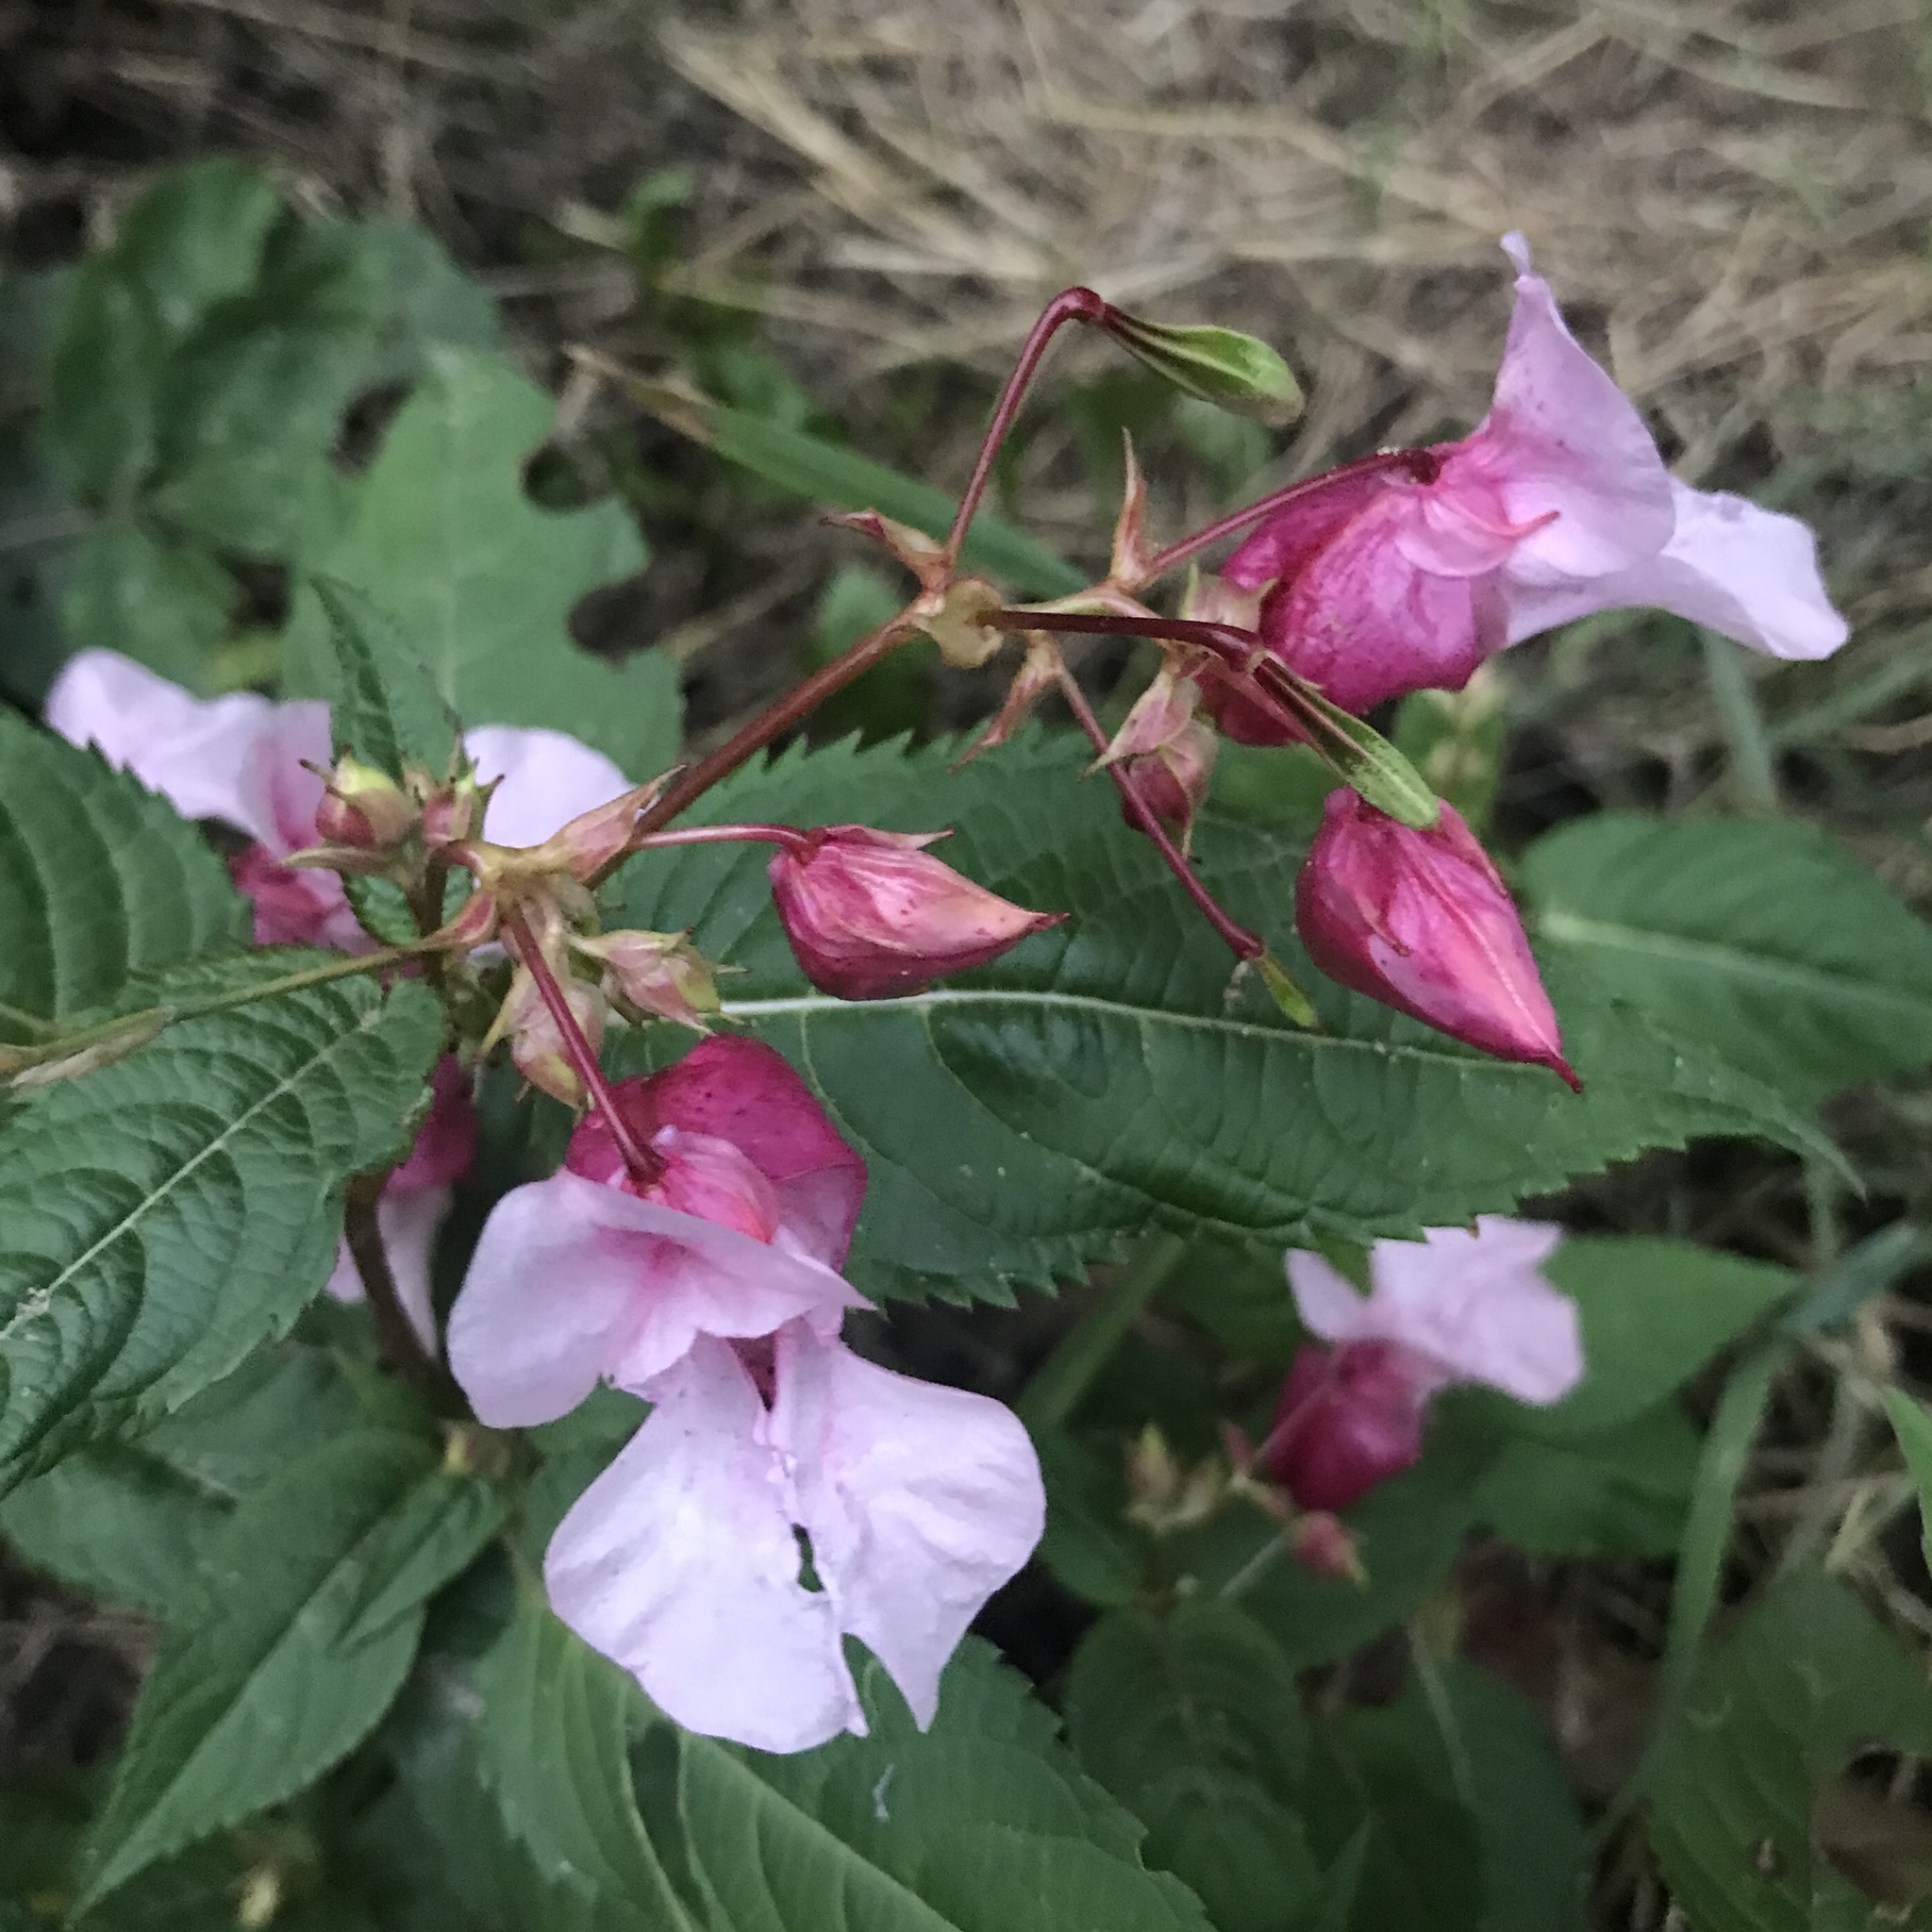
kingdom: Plantae
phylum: Tracheophyta
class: Magnoliopsida
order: Ericales
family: Balsaminaceae
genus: Impatiens
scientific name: Impatiens glandulifera
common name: Himalayan balsam
